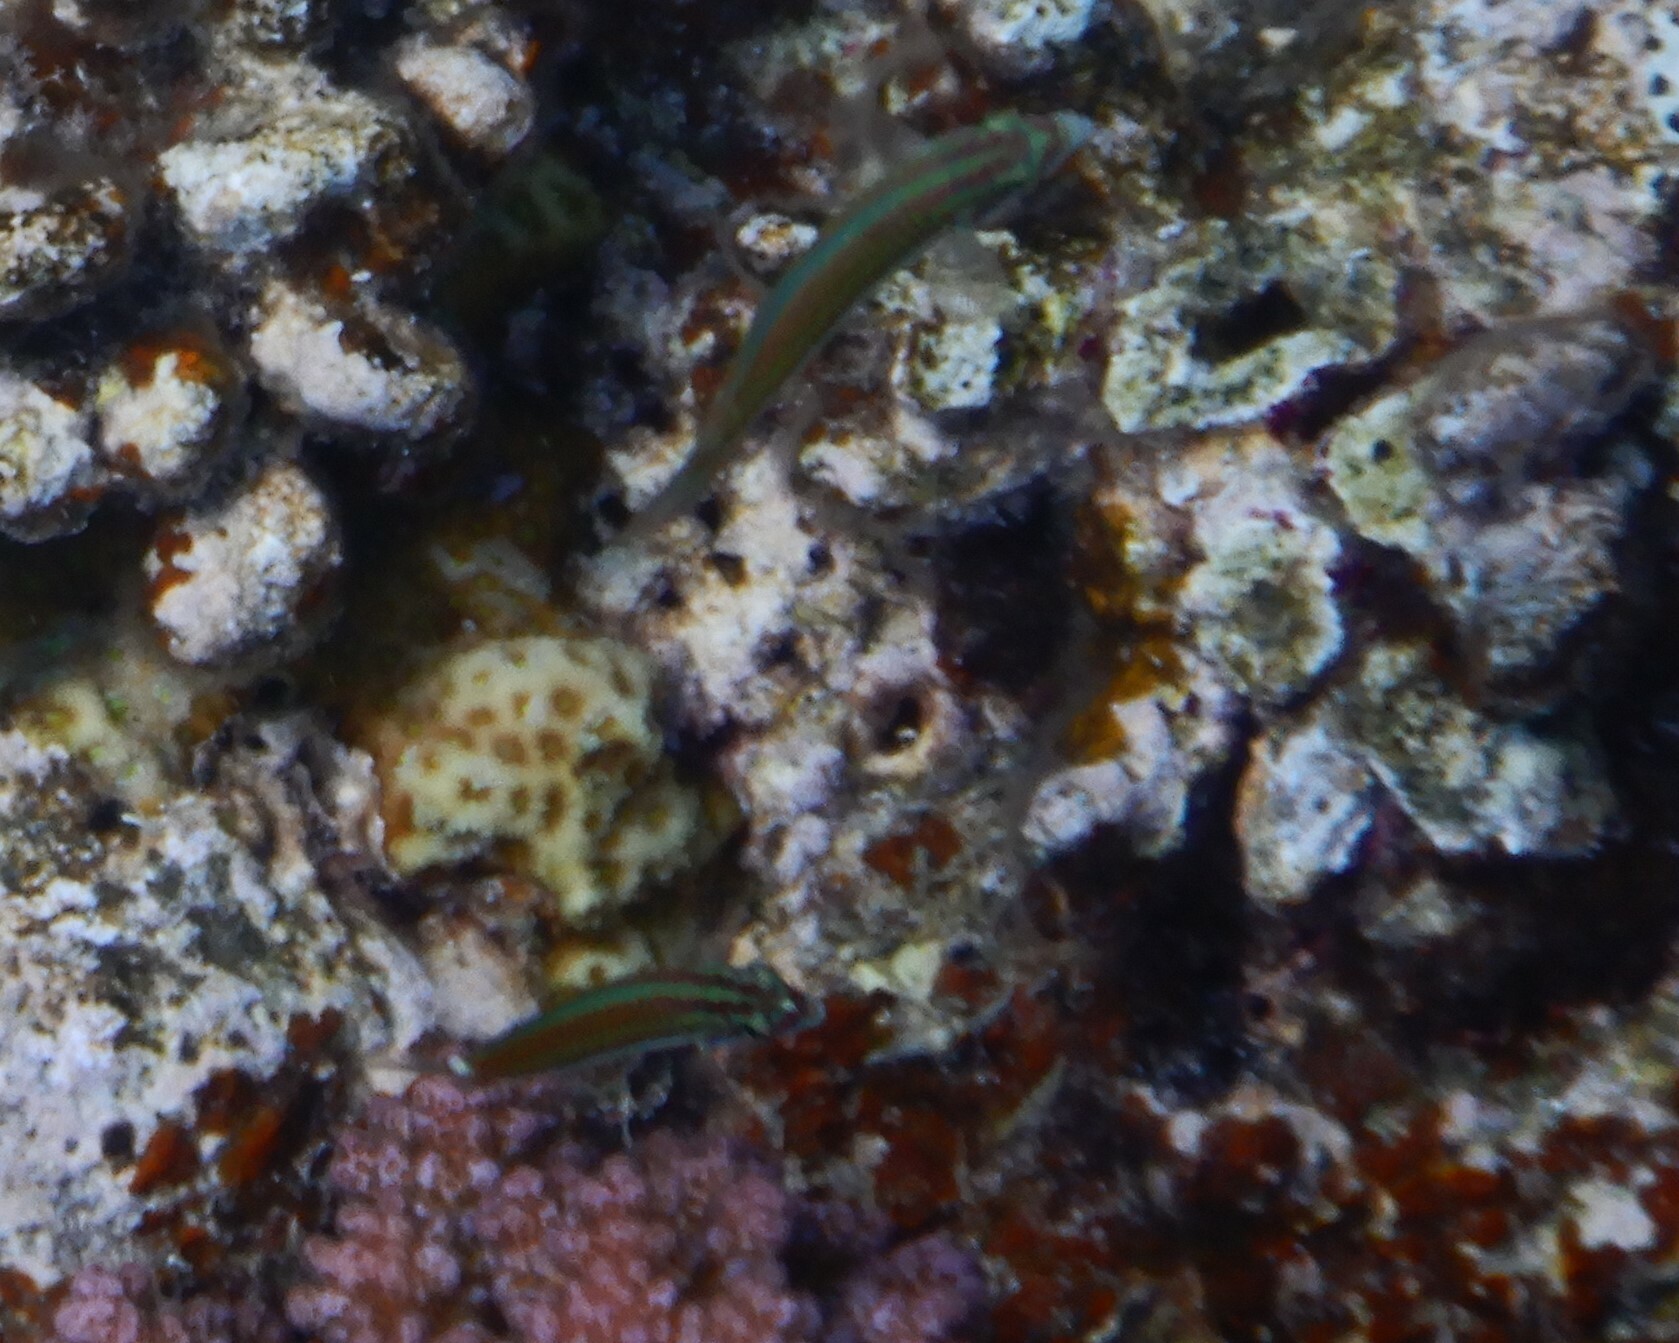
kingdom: Animalia
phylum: Chordata
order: Perciformes
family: Labridae
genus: Thalassoma
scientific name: Thalassoma rueppellii
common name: Klunzinger's wrasse
